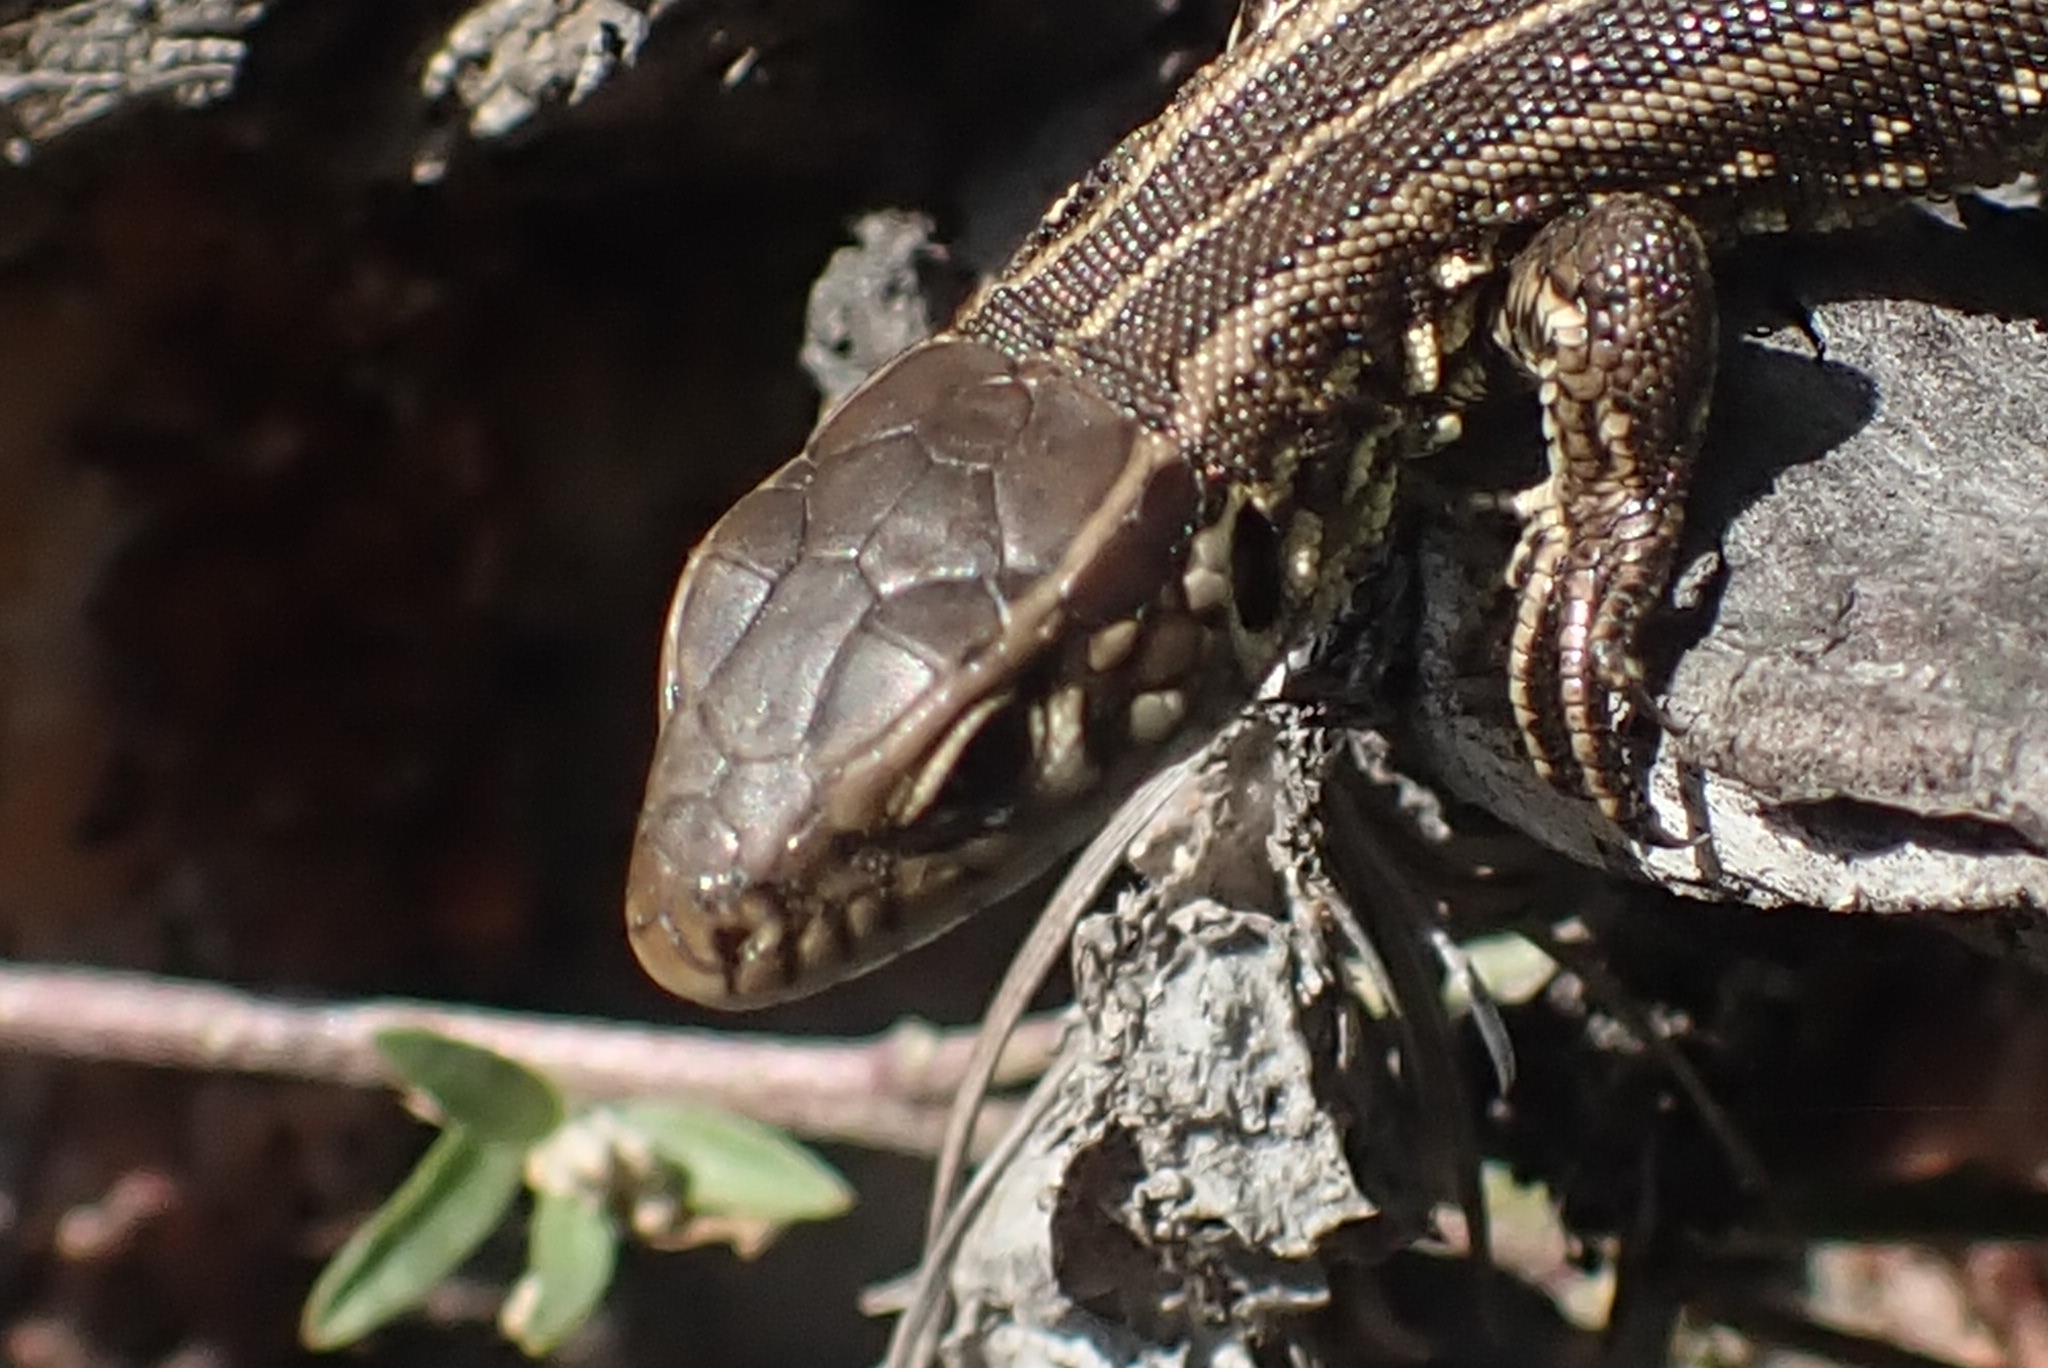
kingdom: Animalia
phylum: Chordata
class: Squamata
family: Lacertidae
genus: Lacerta
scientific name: Lacerta agilis
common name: Sand lizard
